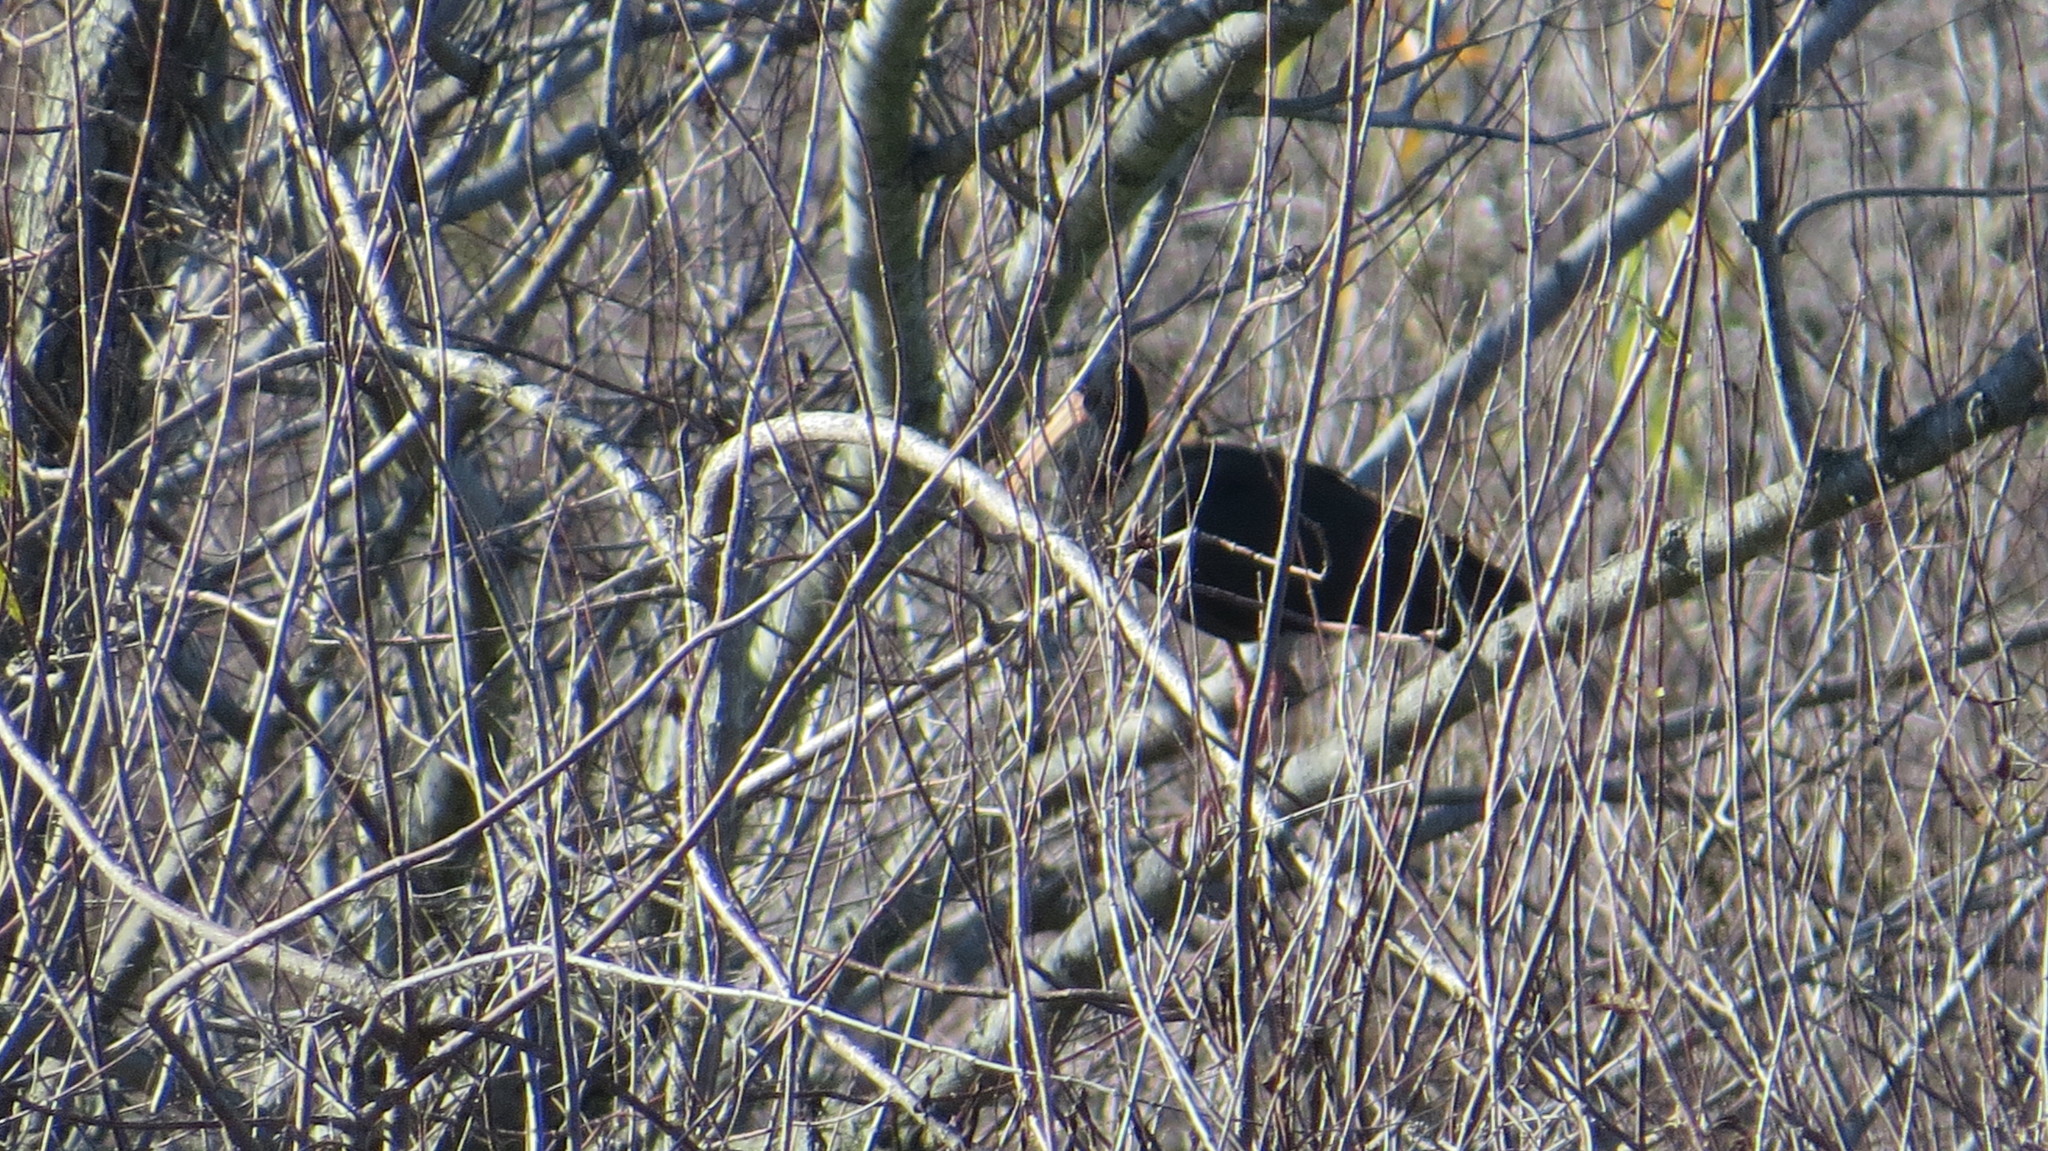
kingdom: Animalia
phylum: Chordata
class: Aves
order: Pelecaniformes
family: Threskiornithidae
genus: Phimosus
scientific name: Phimosus infuscatus
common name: Bare-faced ibis
